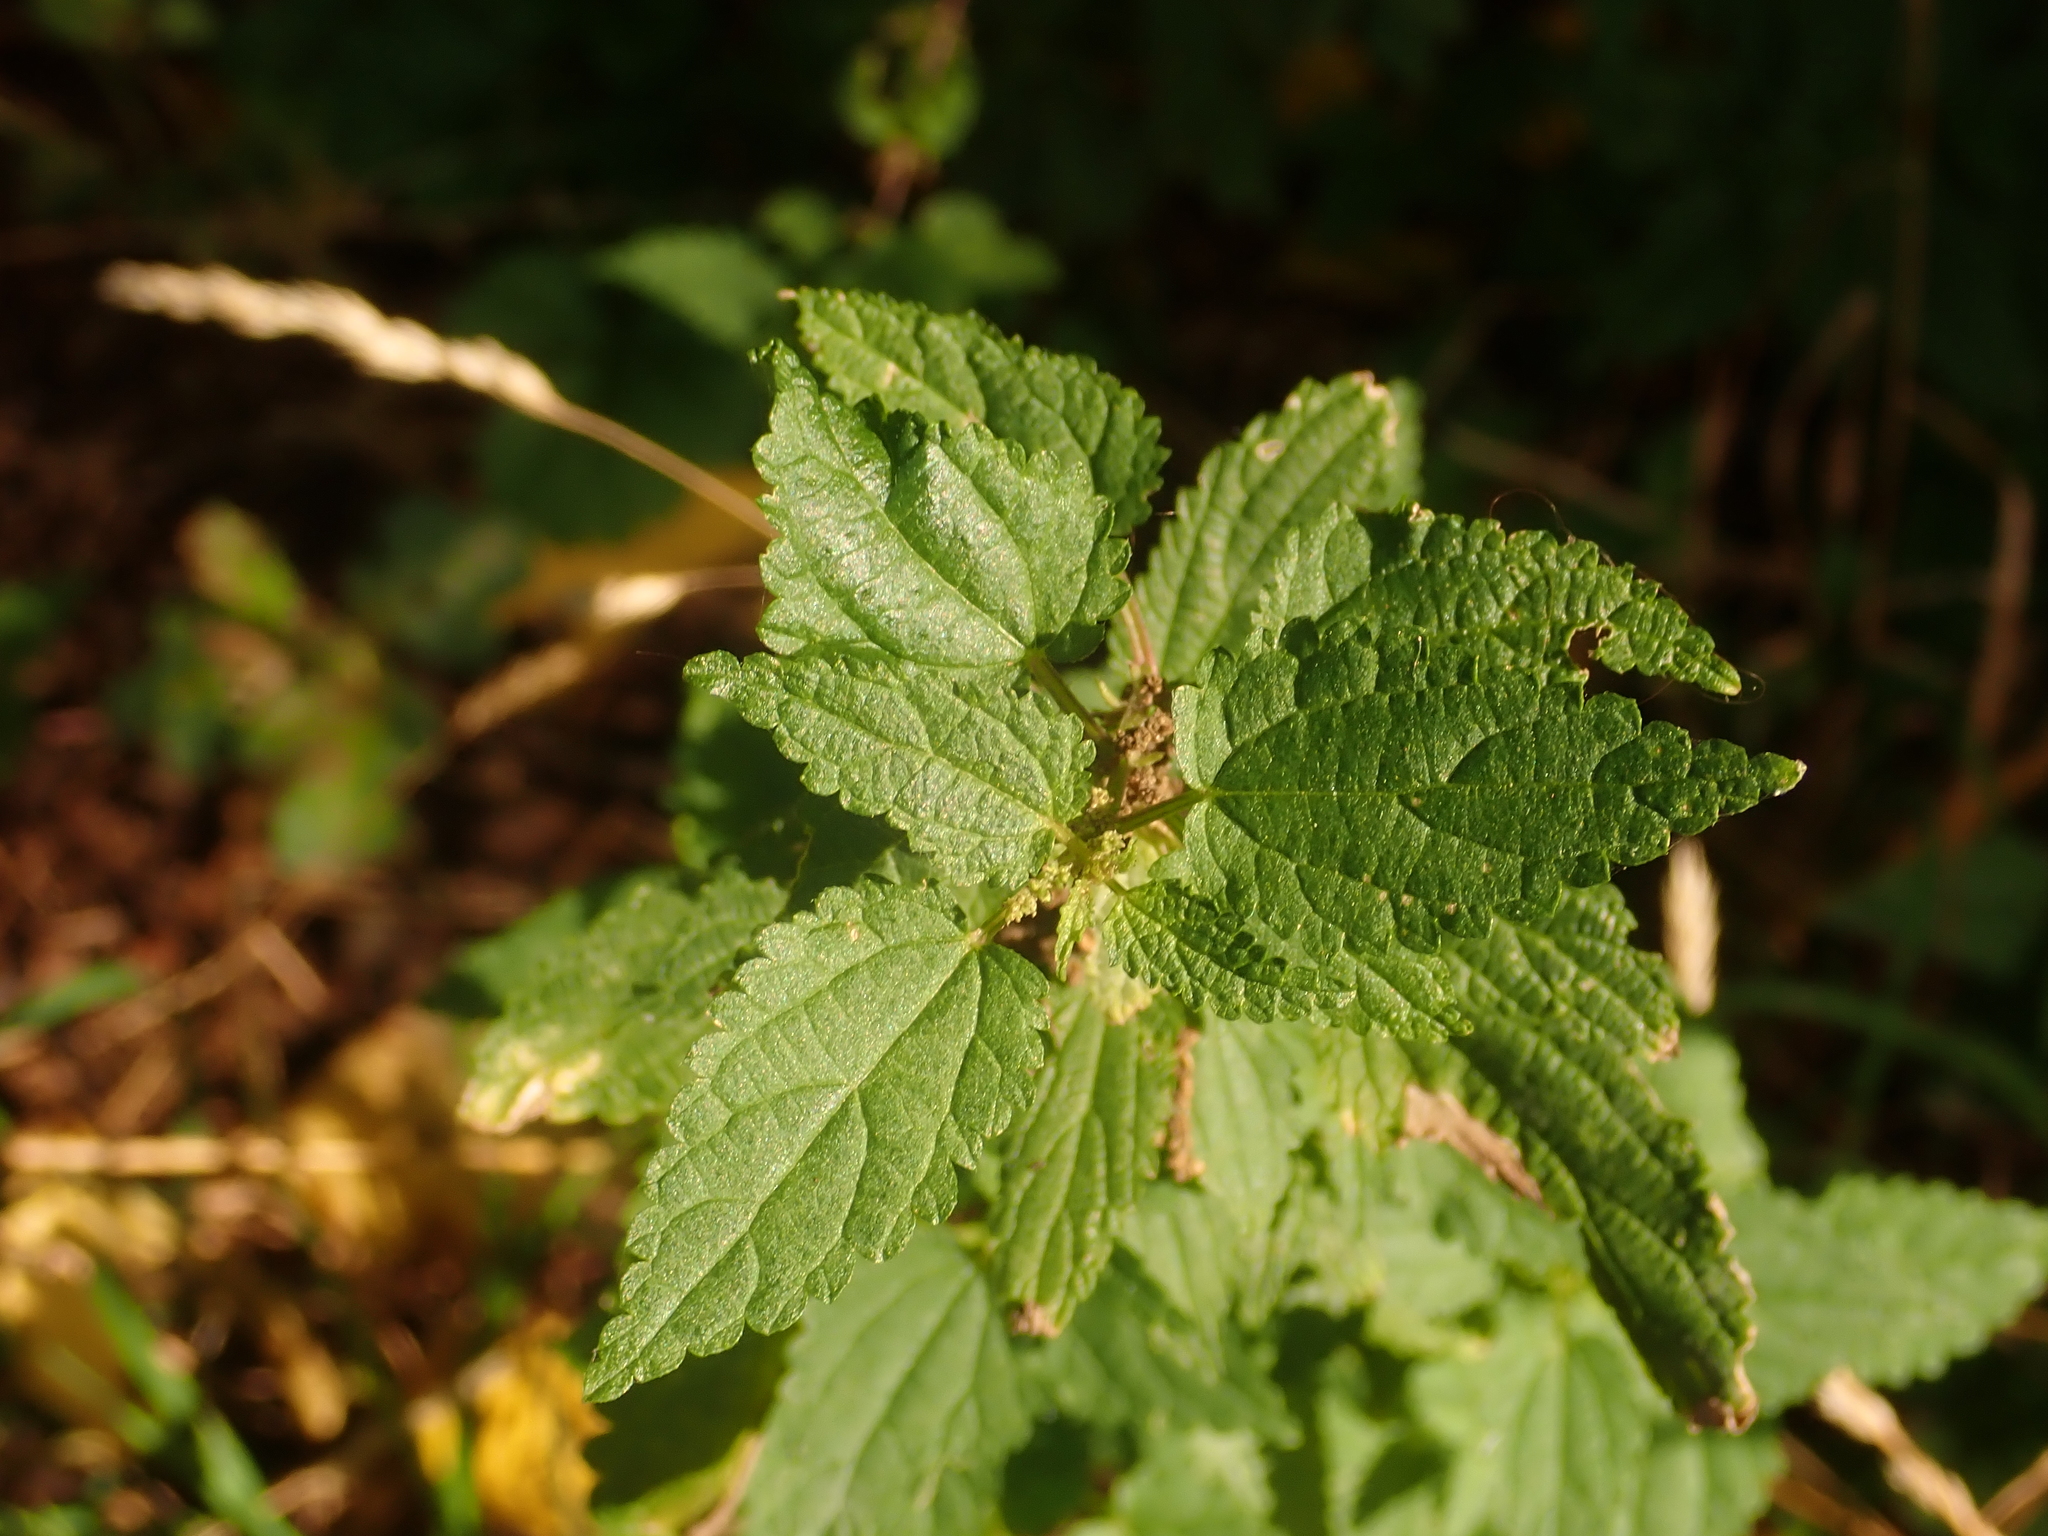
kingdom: Plantae
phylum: Tracheophyta
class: Magnoliopsida
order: Rosales
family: Urticaceae
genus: Urtica
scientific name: Urtica dioica
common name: Common nettle
